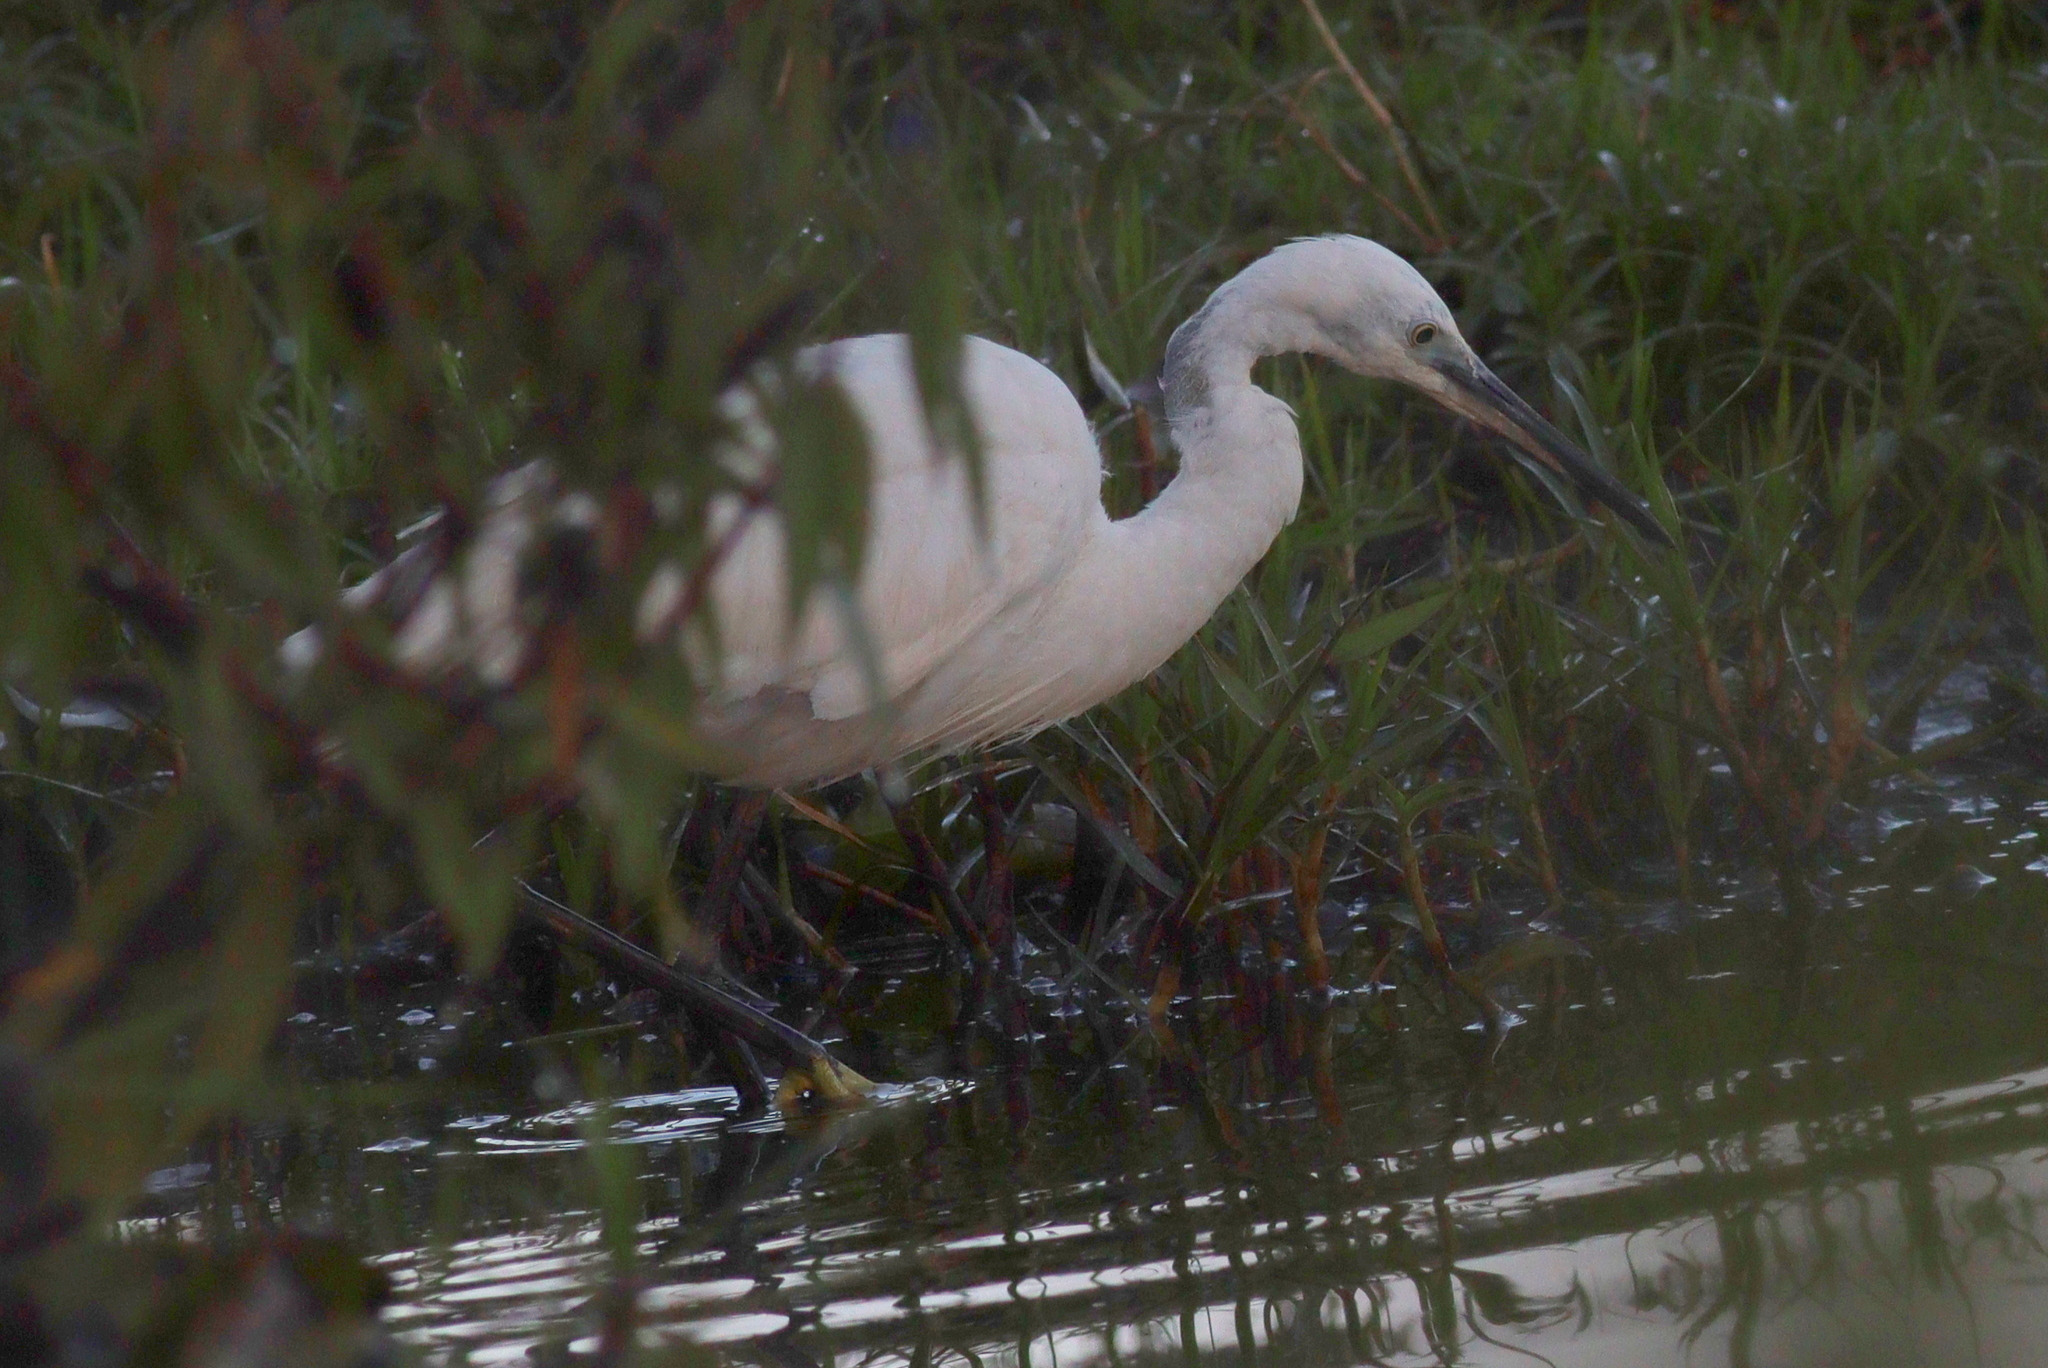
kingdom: Animalia
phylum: Chordata
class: Aves
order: Pelecaniformes
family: Ardeidae
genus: Egretta
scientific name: Egretta garzetta
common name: Little egret
